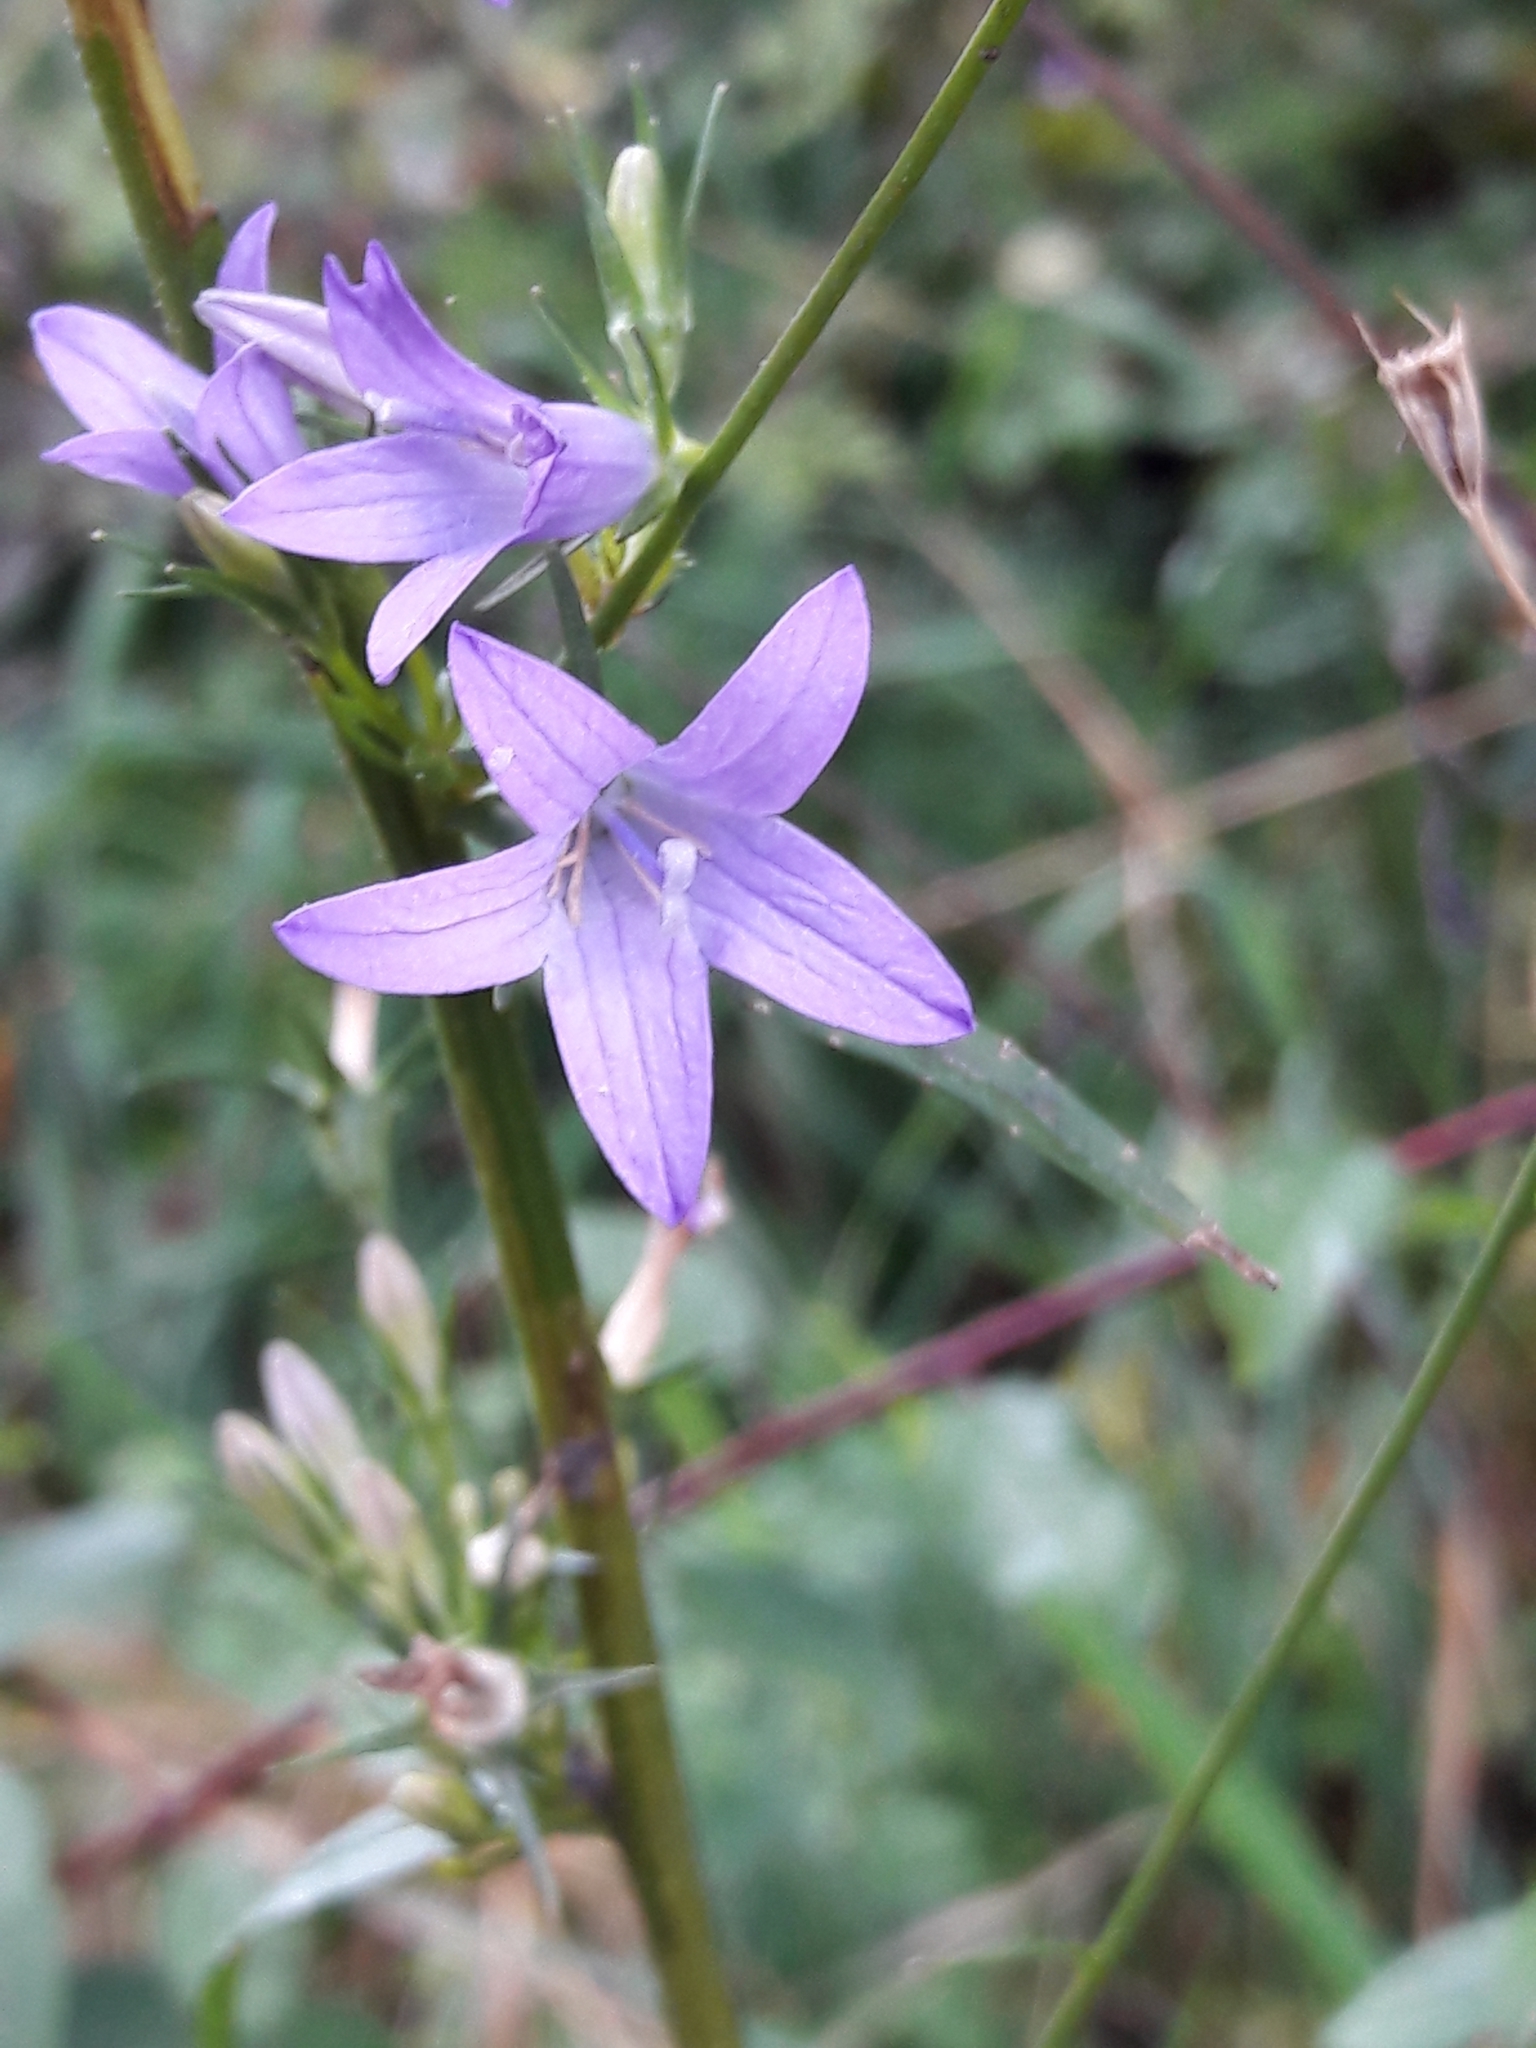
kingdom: Plantae
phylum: Tracheophyta
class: Magnoliopsida
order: Asterales
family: Campanulaceae
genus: Campanula
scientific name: Campanula rapunculus
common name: Rampion bellflower
